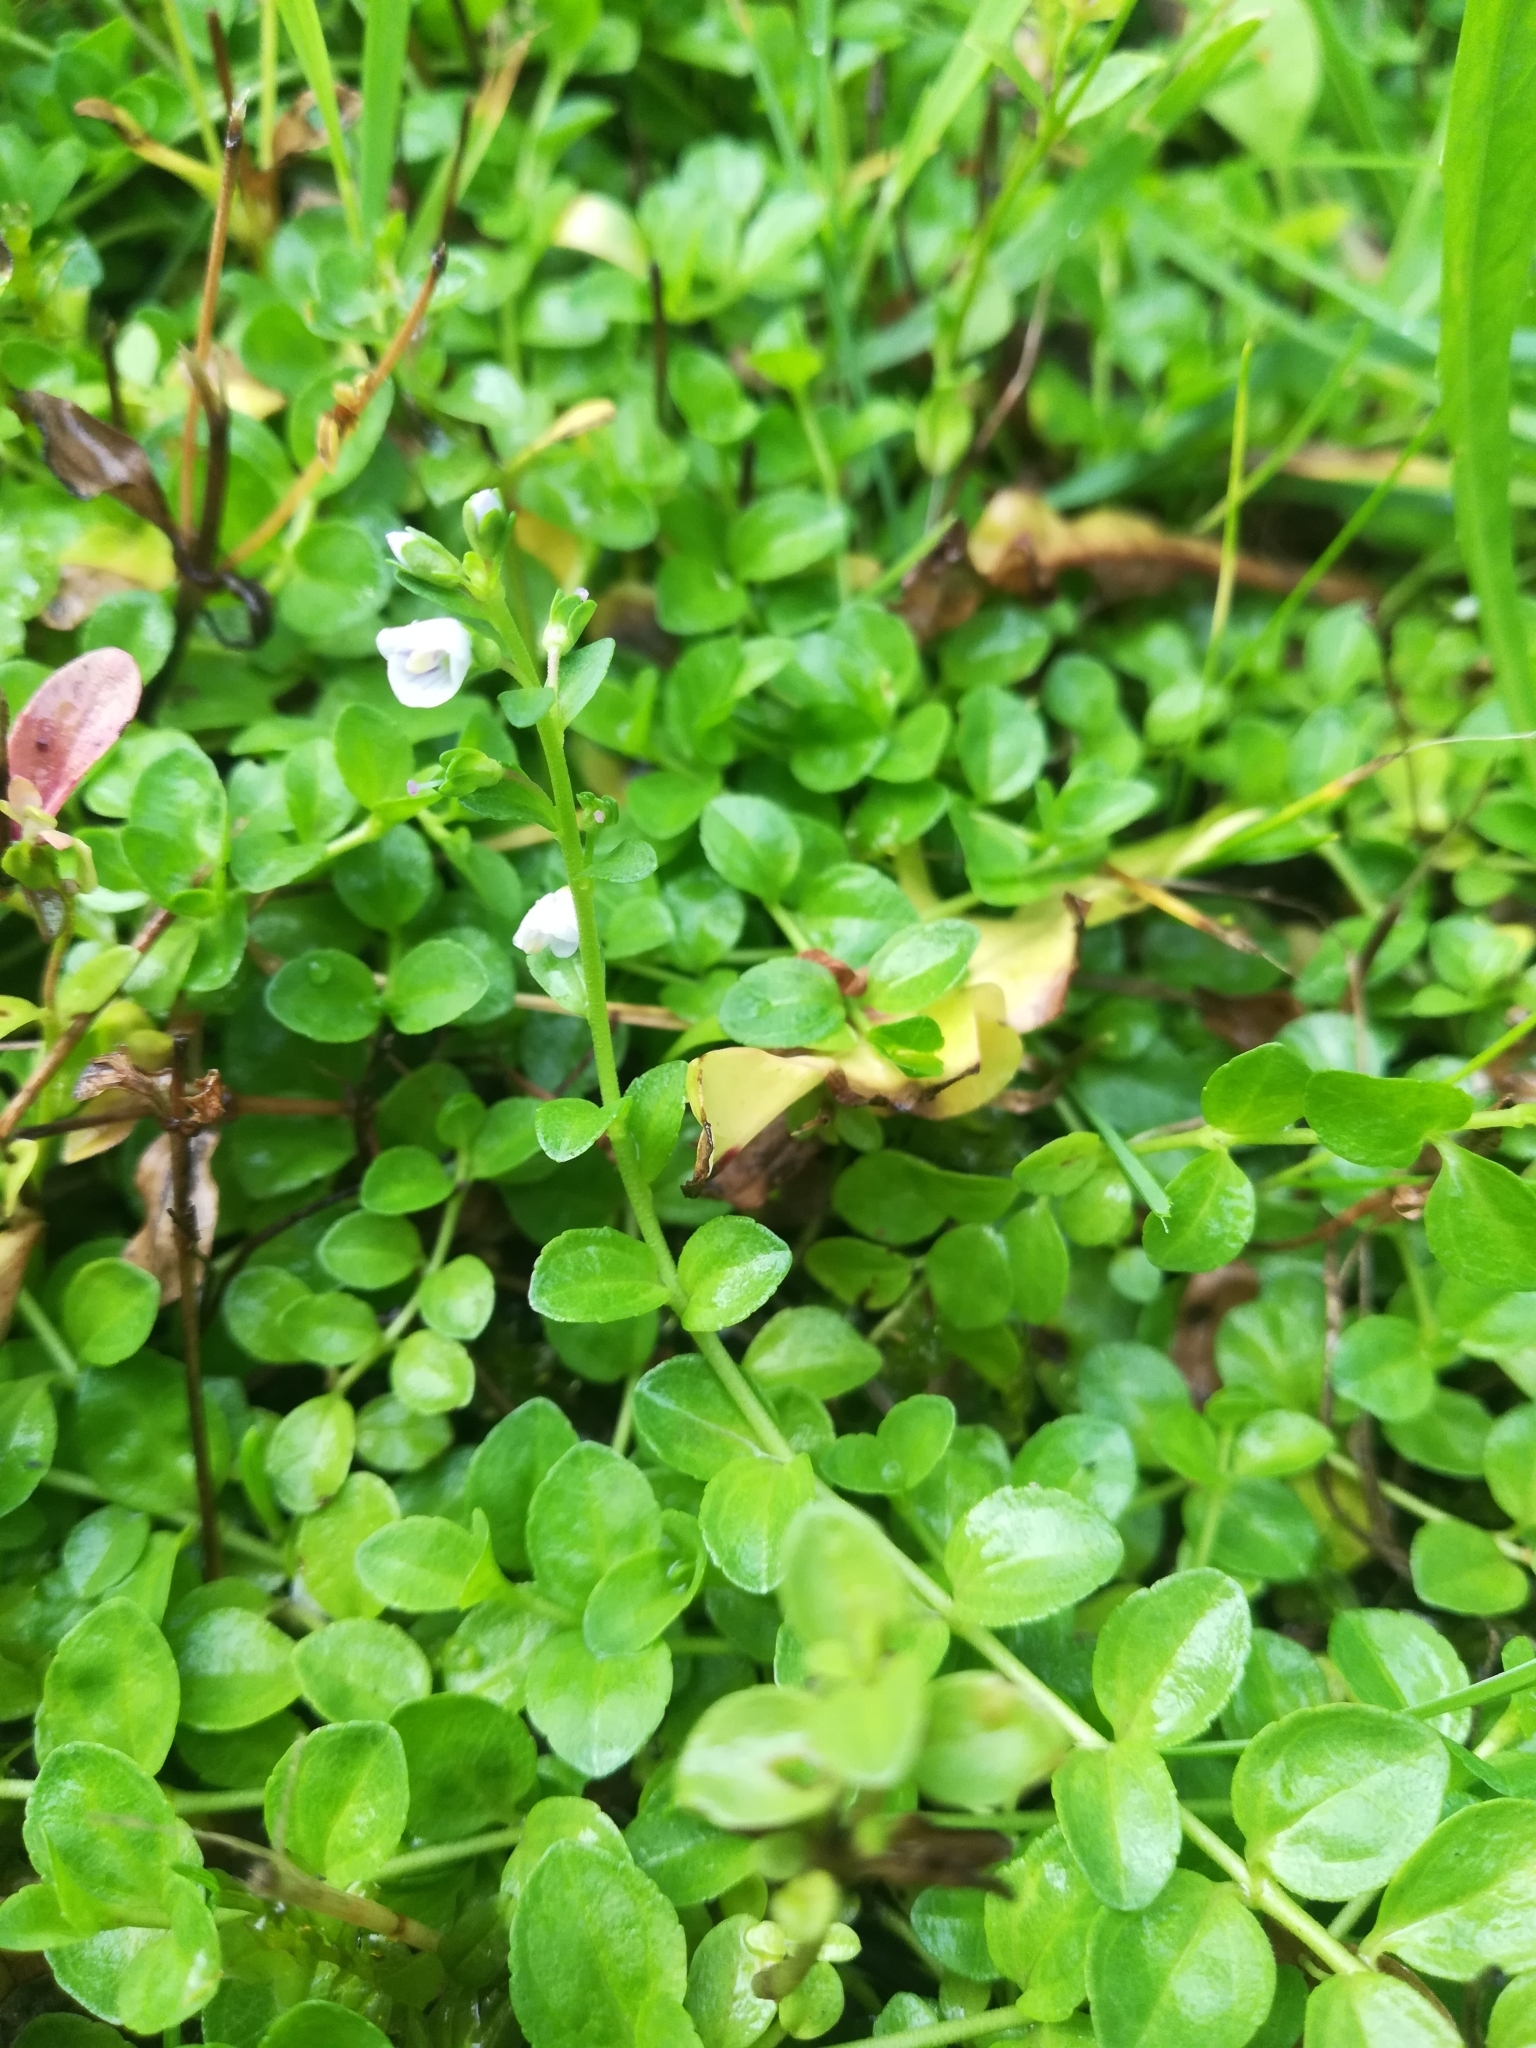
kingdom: Plantae
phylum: Tracheophyta
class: Magnoliopsida
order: Lamiales
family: Plantaginaceae
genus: Veronica
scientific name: Veronica serpyllifolia
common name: Thyme-leaved speedwell
